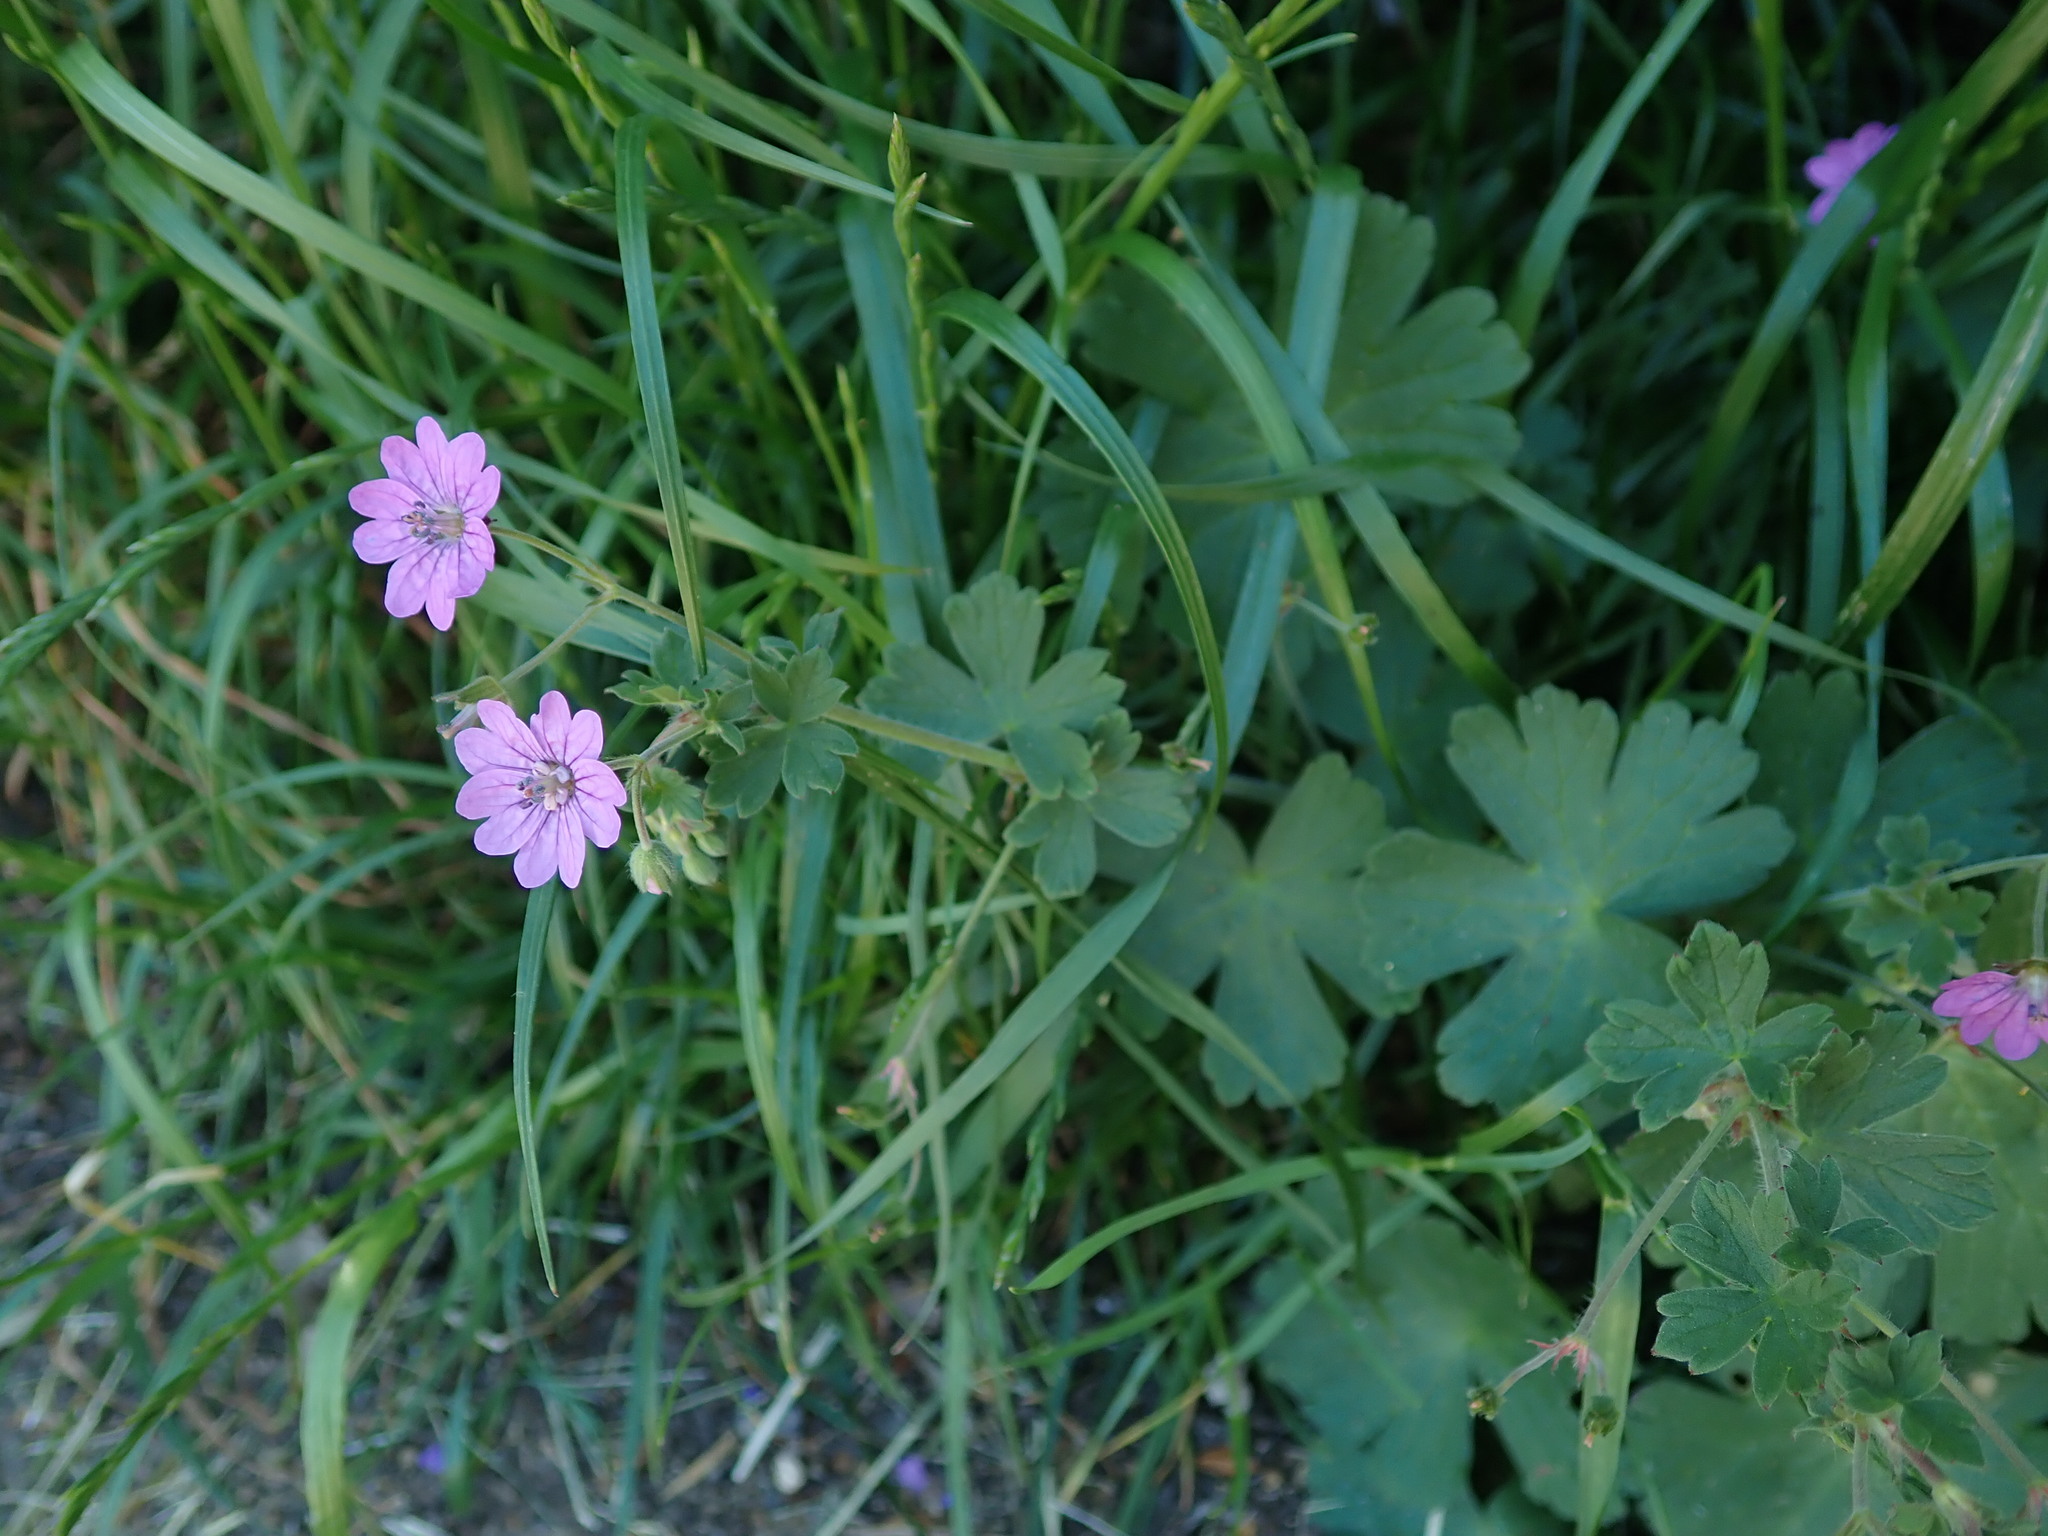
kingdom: Plantae
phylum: Tracheophyta
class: Magnoliopsida
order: Geraniales
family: Geraniaceae
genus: Geranium
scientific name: Geranium pyrenaicum
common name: Hedgerow crane's-bill
